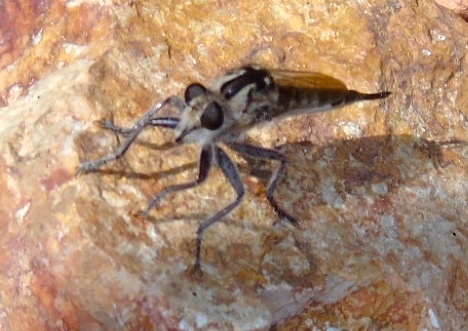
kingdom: Animalia
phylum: Arthropoda
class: Insecta
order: Diptera
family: Asilidae
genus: Efferia
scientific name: Efferia
